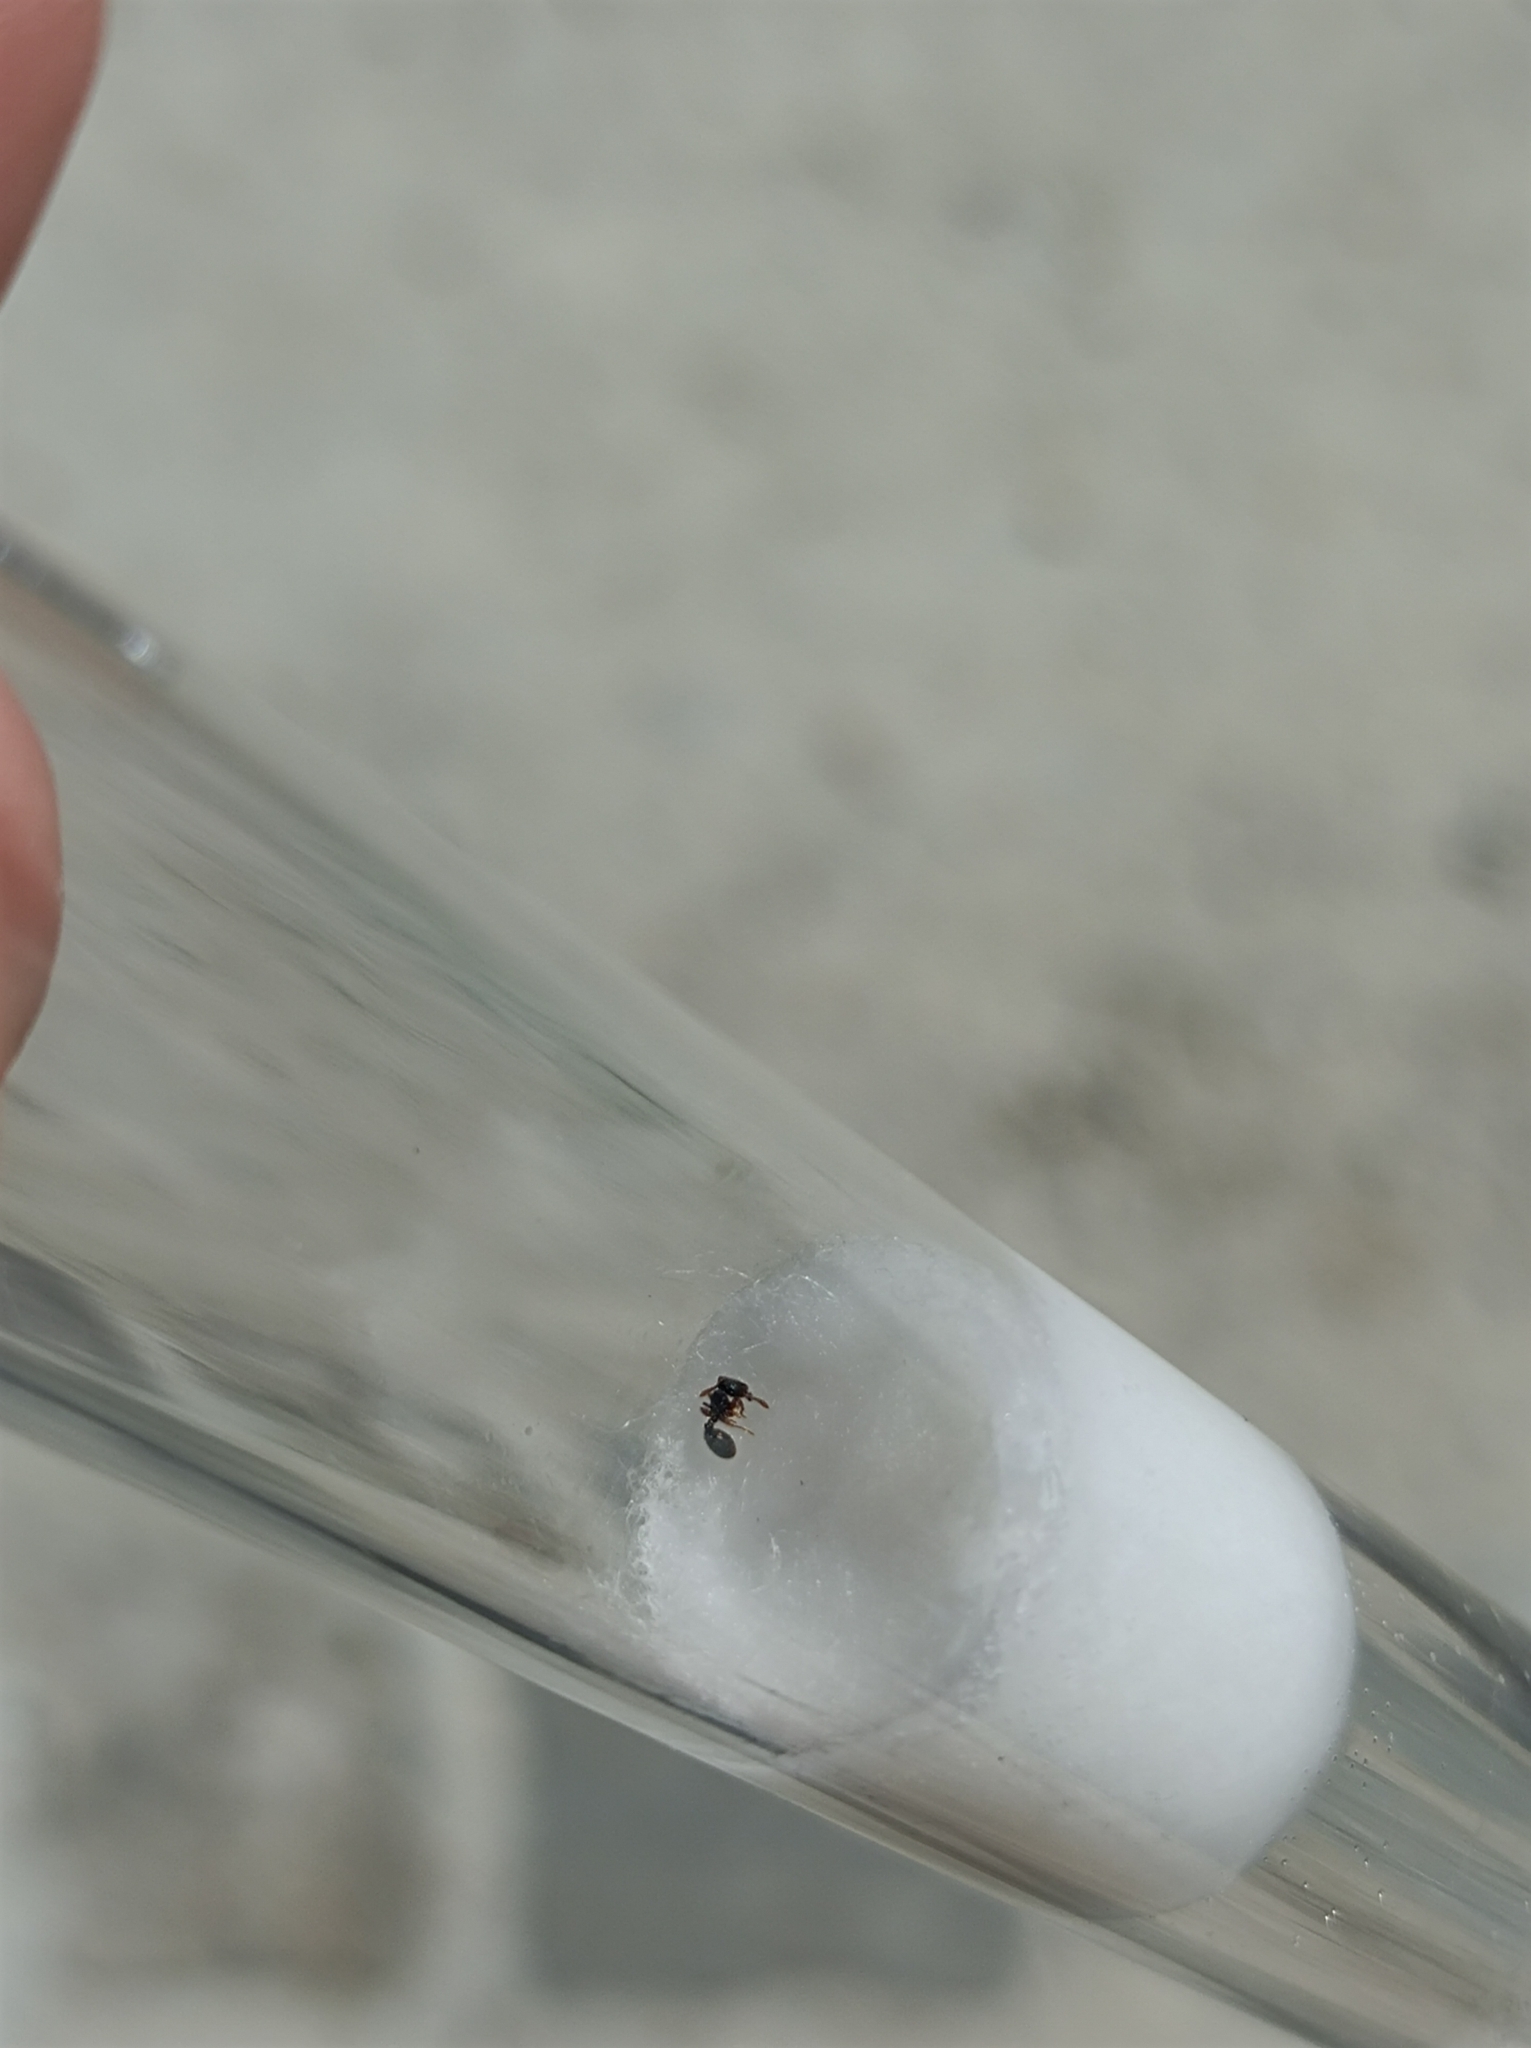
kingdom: Animalia
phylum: Arthropoda
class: Insecta
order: Hymenoptera
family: Formicidae
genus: Myrmecina
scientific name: Myrmecina graminicola
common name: Grass ant
